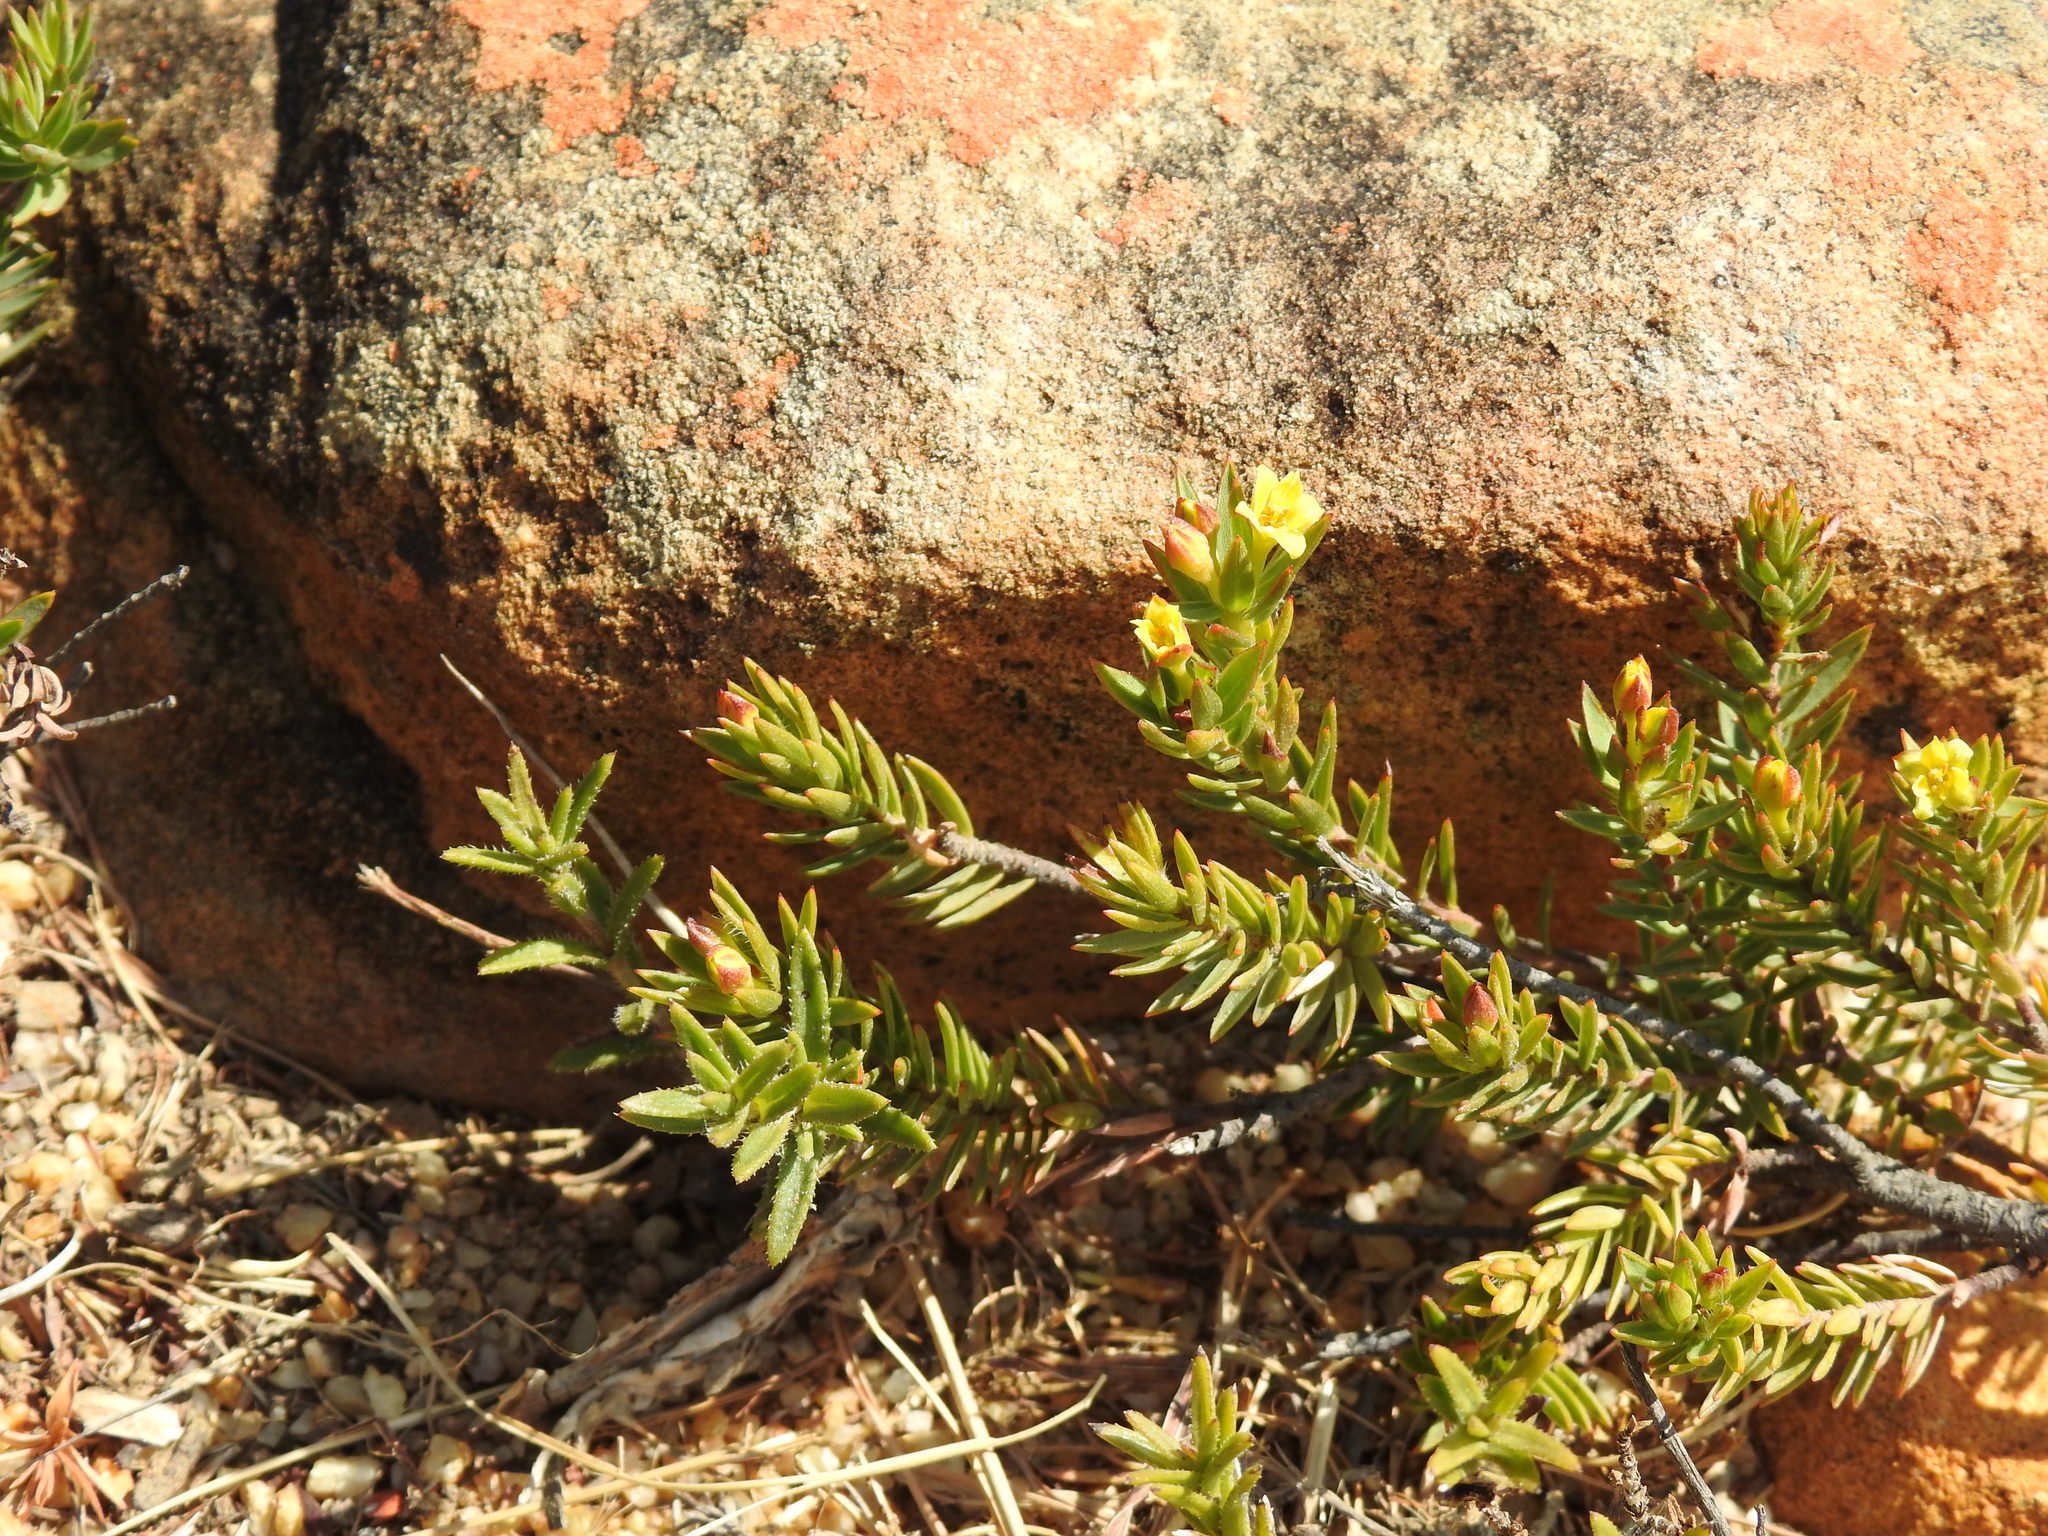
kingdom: Plantae
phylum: Tracheophyta
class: Magnoliopsida
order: Malvales
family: Thymelaeaceae
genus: Gnidia
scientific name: Gnidia juniperifolia
